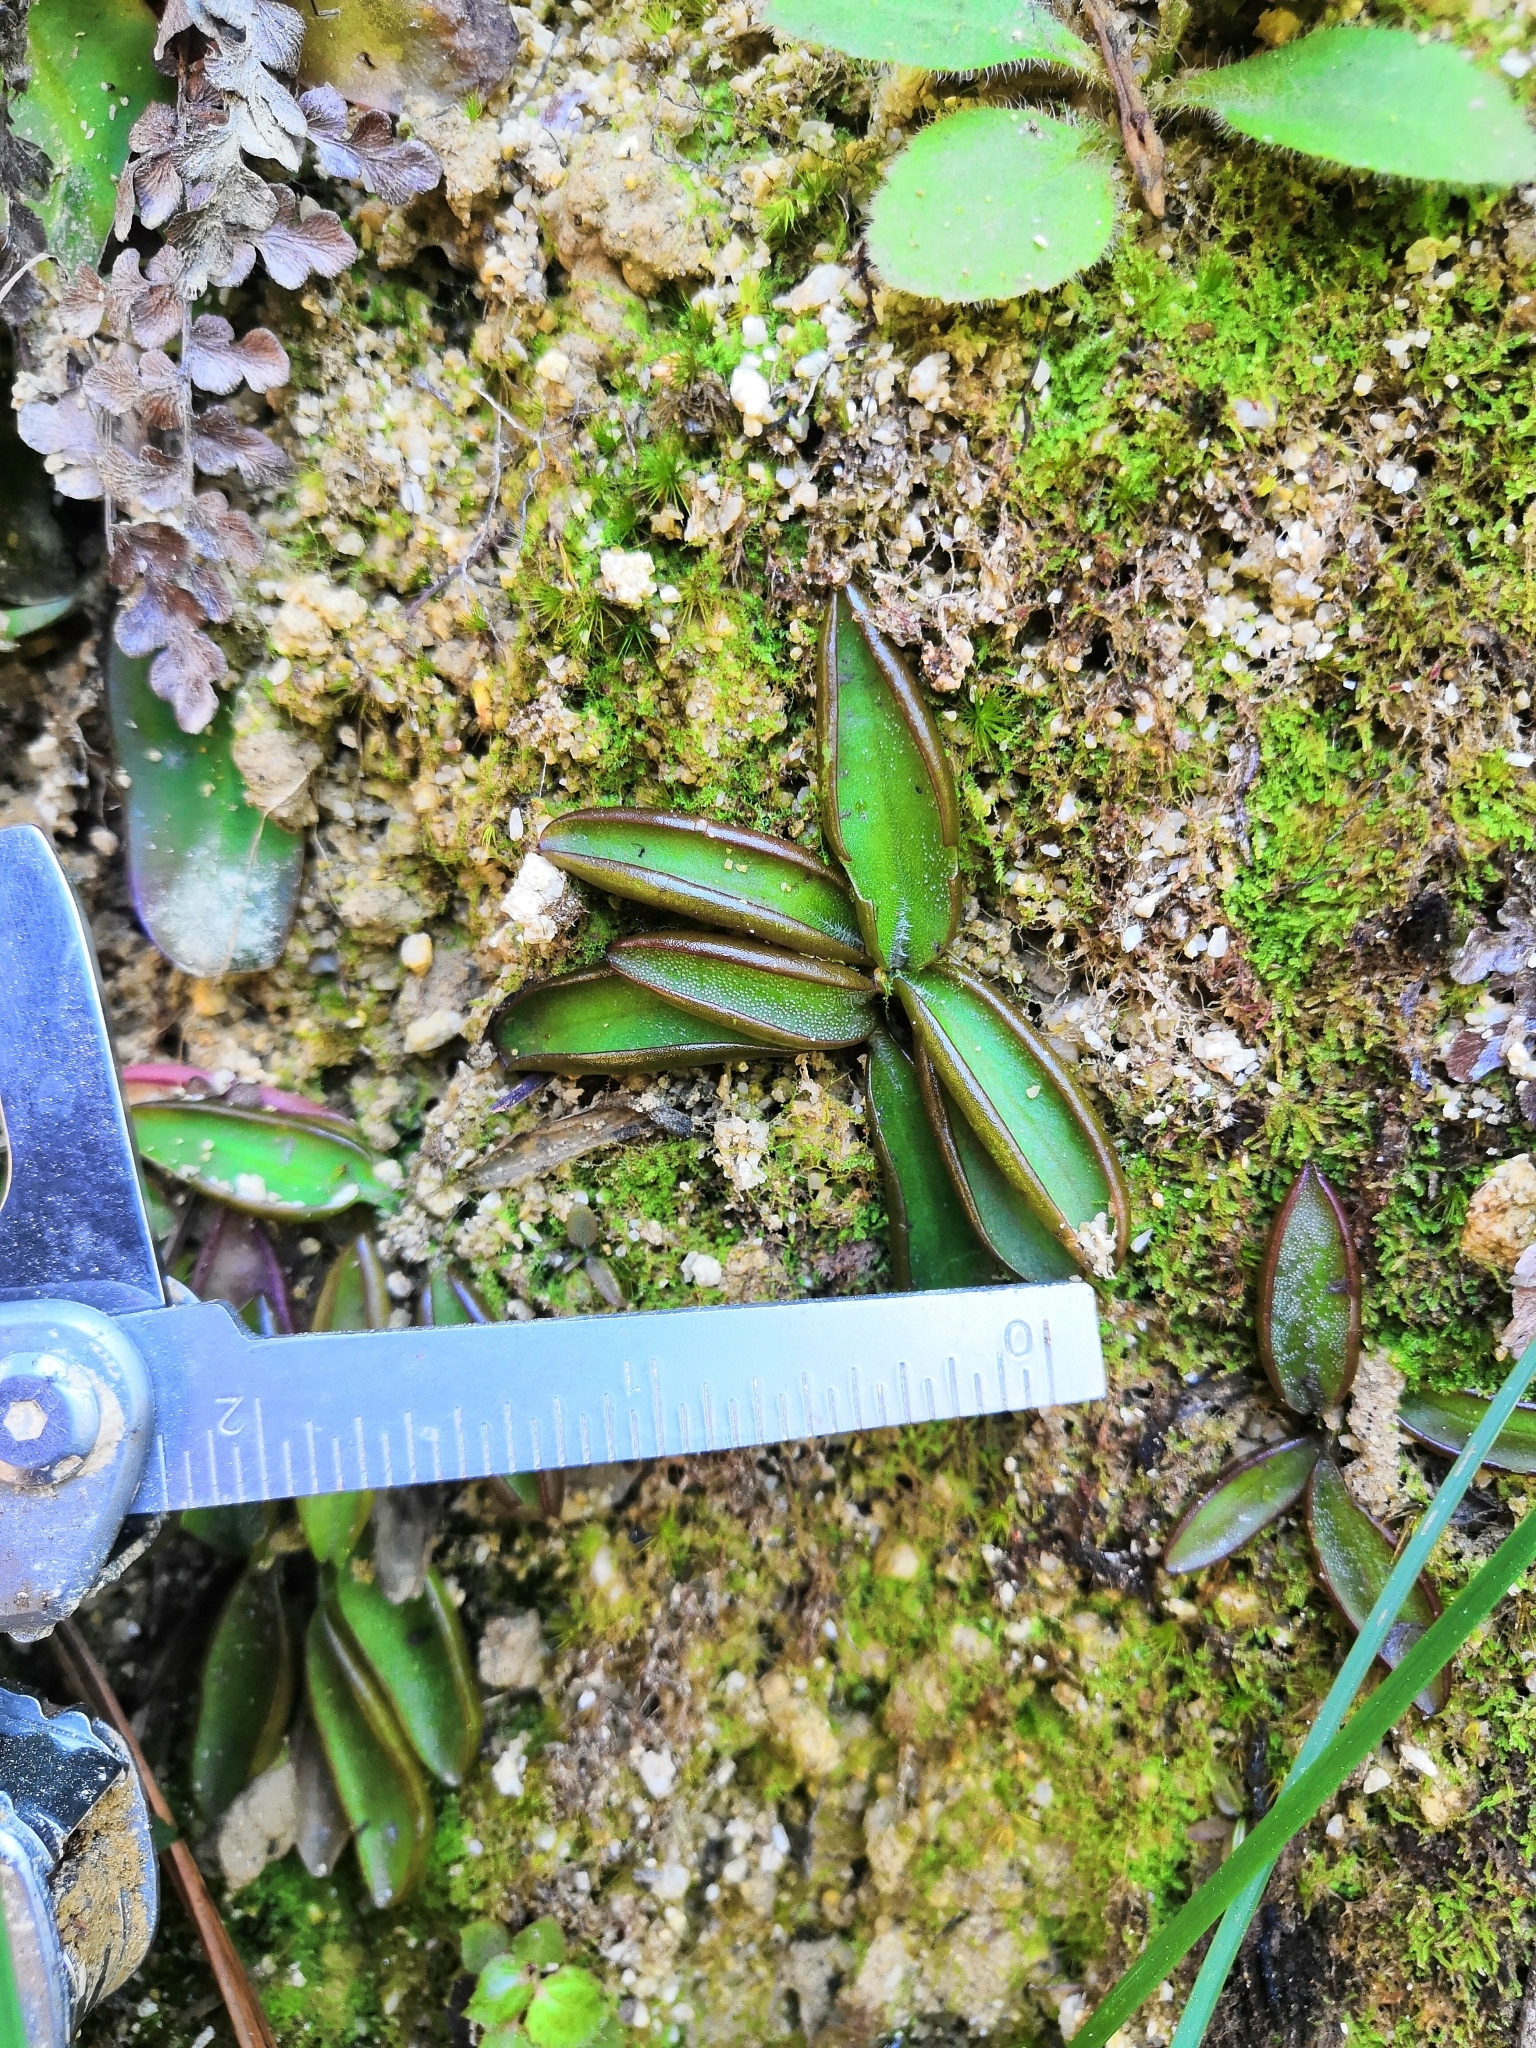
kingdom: Plantae
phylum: Tracheophyta
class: Magnoliopsida
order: Lamiales
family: Lentibulariaceae
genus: Pinguicula
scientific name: Pinguicula parvifolia
